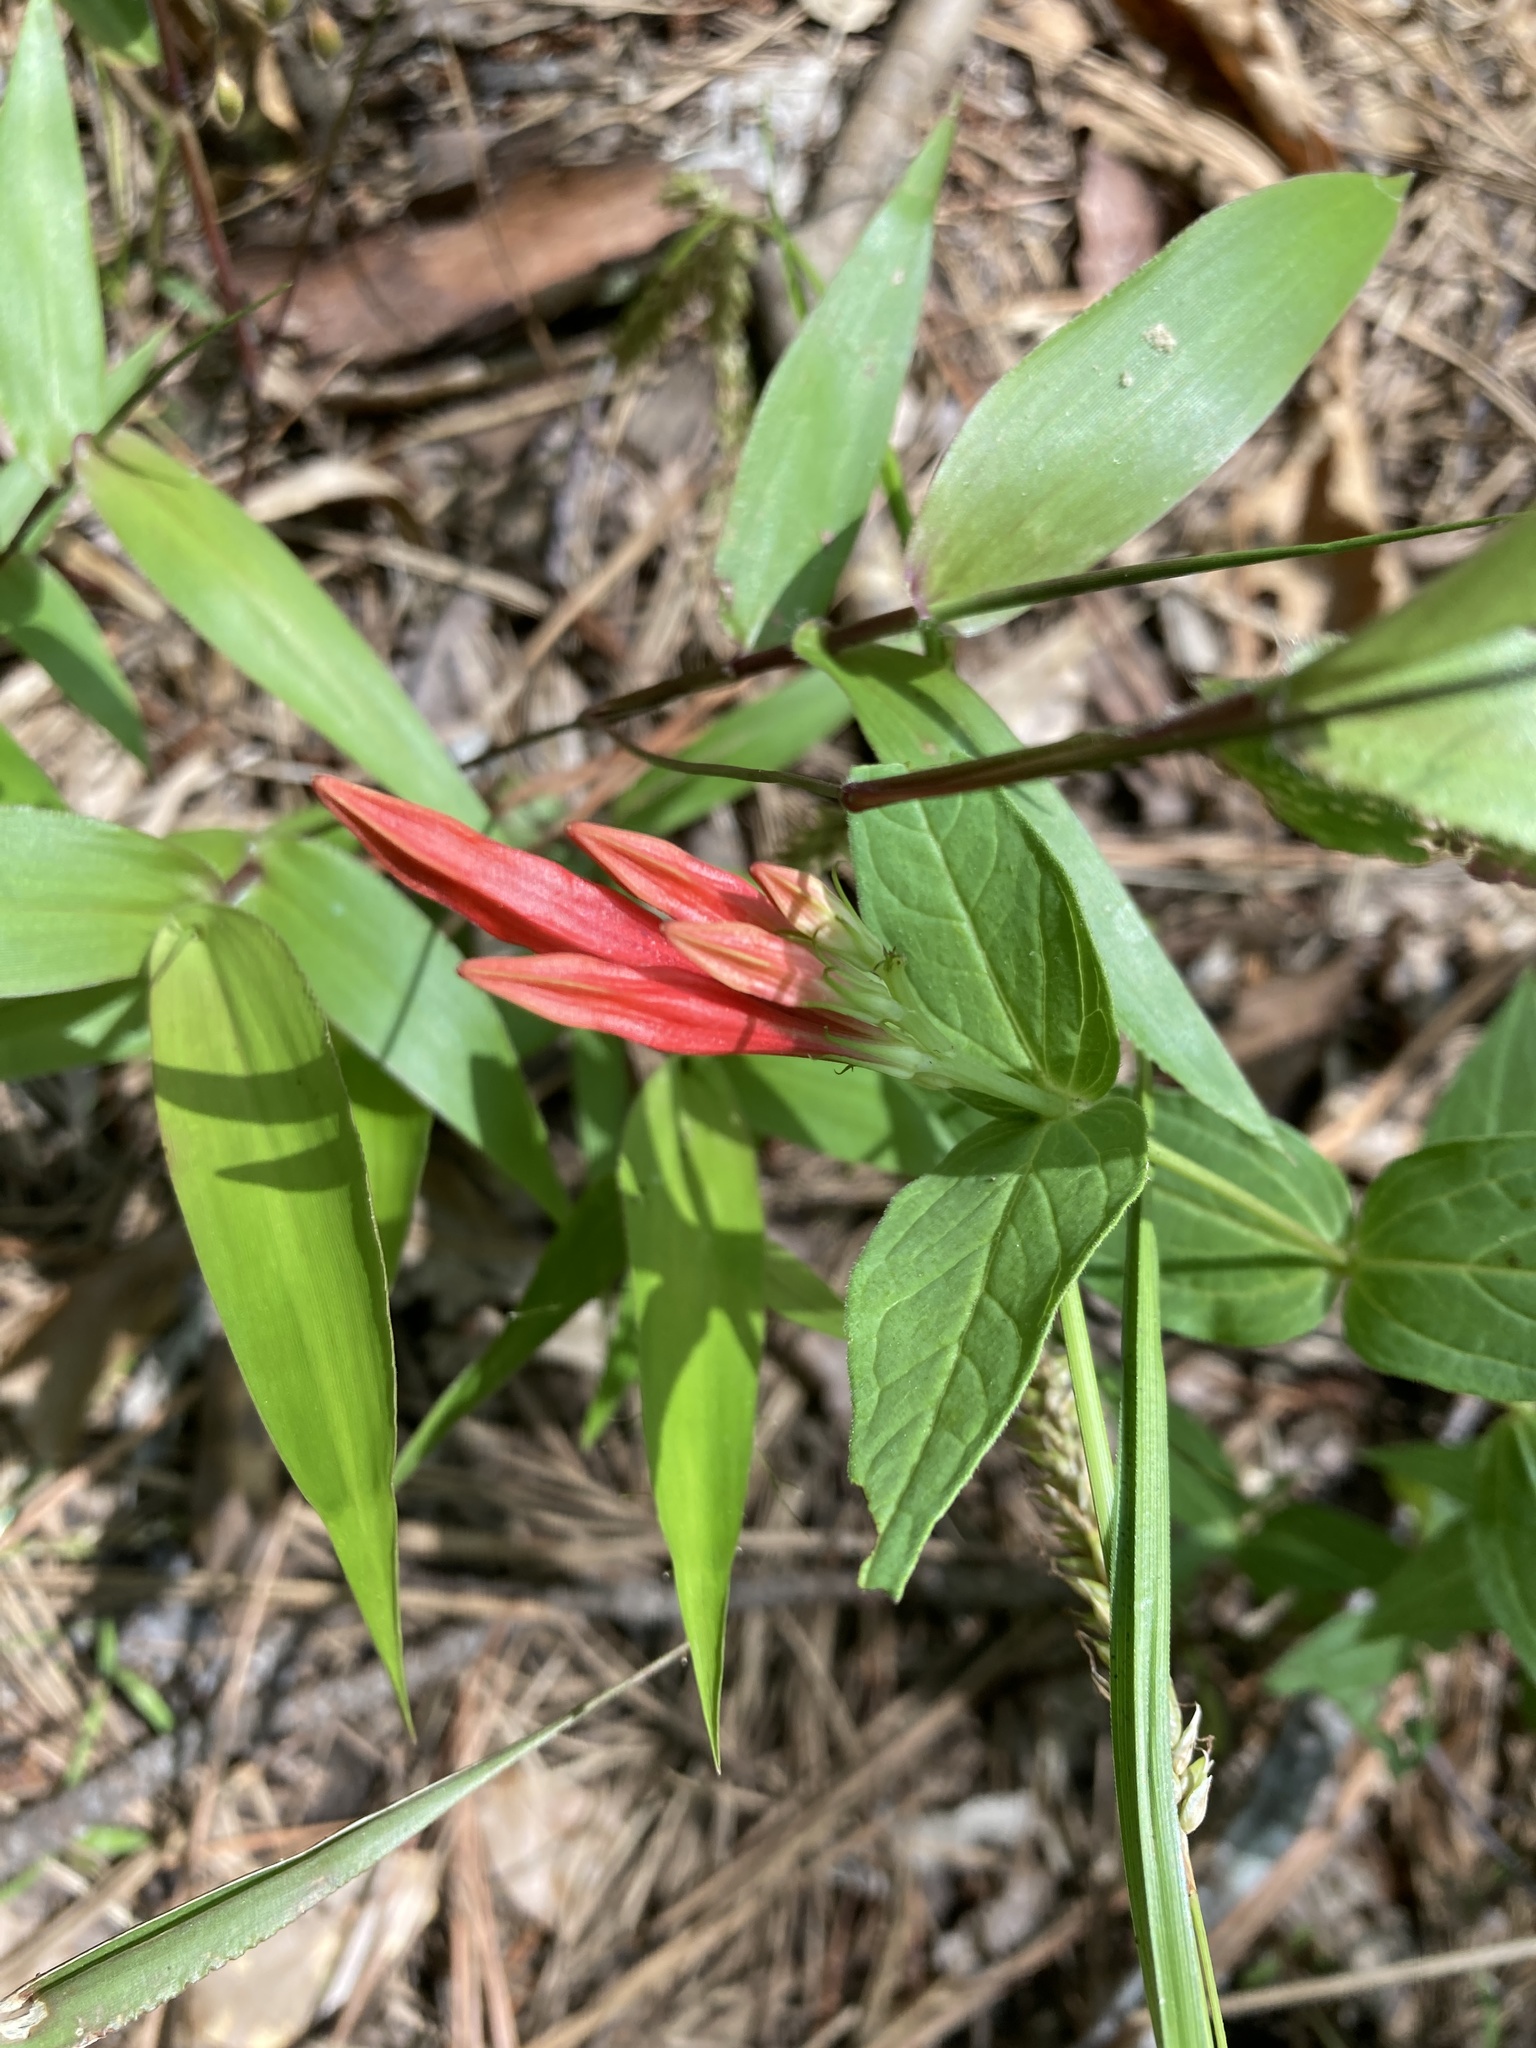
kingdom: Plantae
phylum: Tracheophyta
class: Magnoliopsida
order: Gentianales
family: Loganiaceae
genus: Spigelia
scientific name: Spigelia marilandica
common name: Indian-pink
